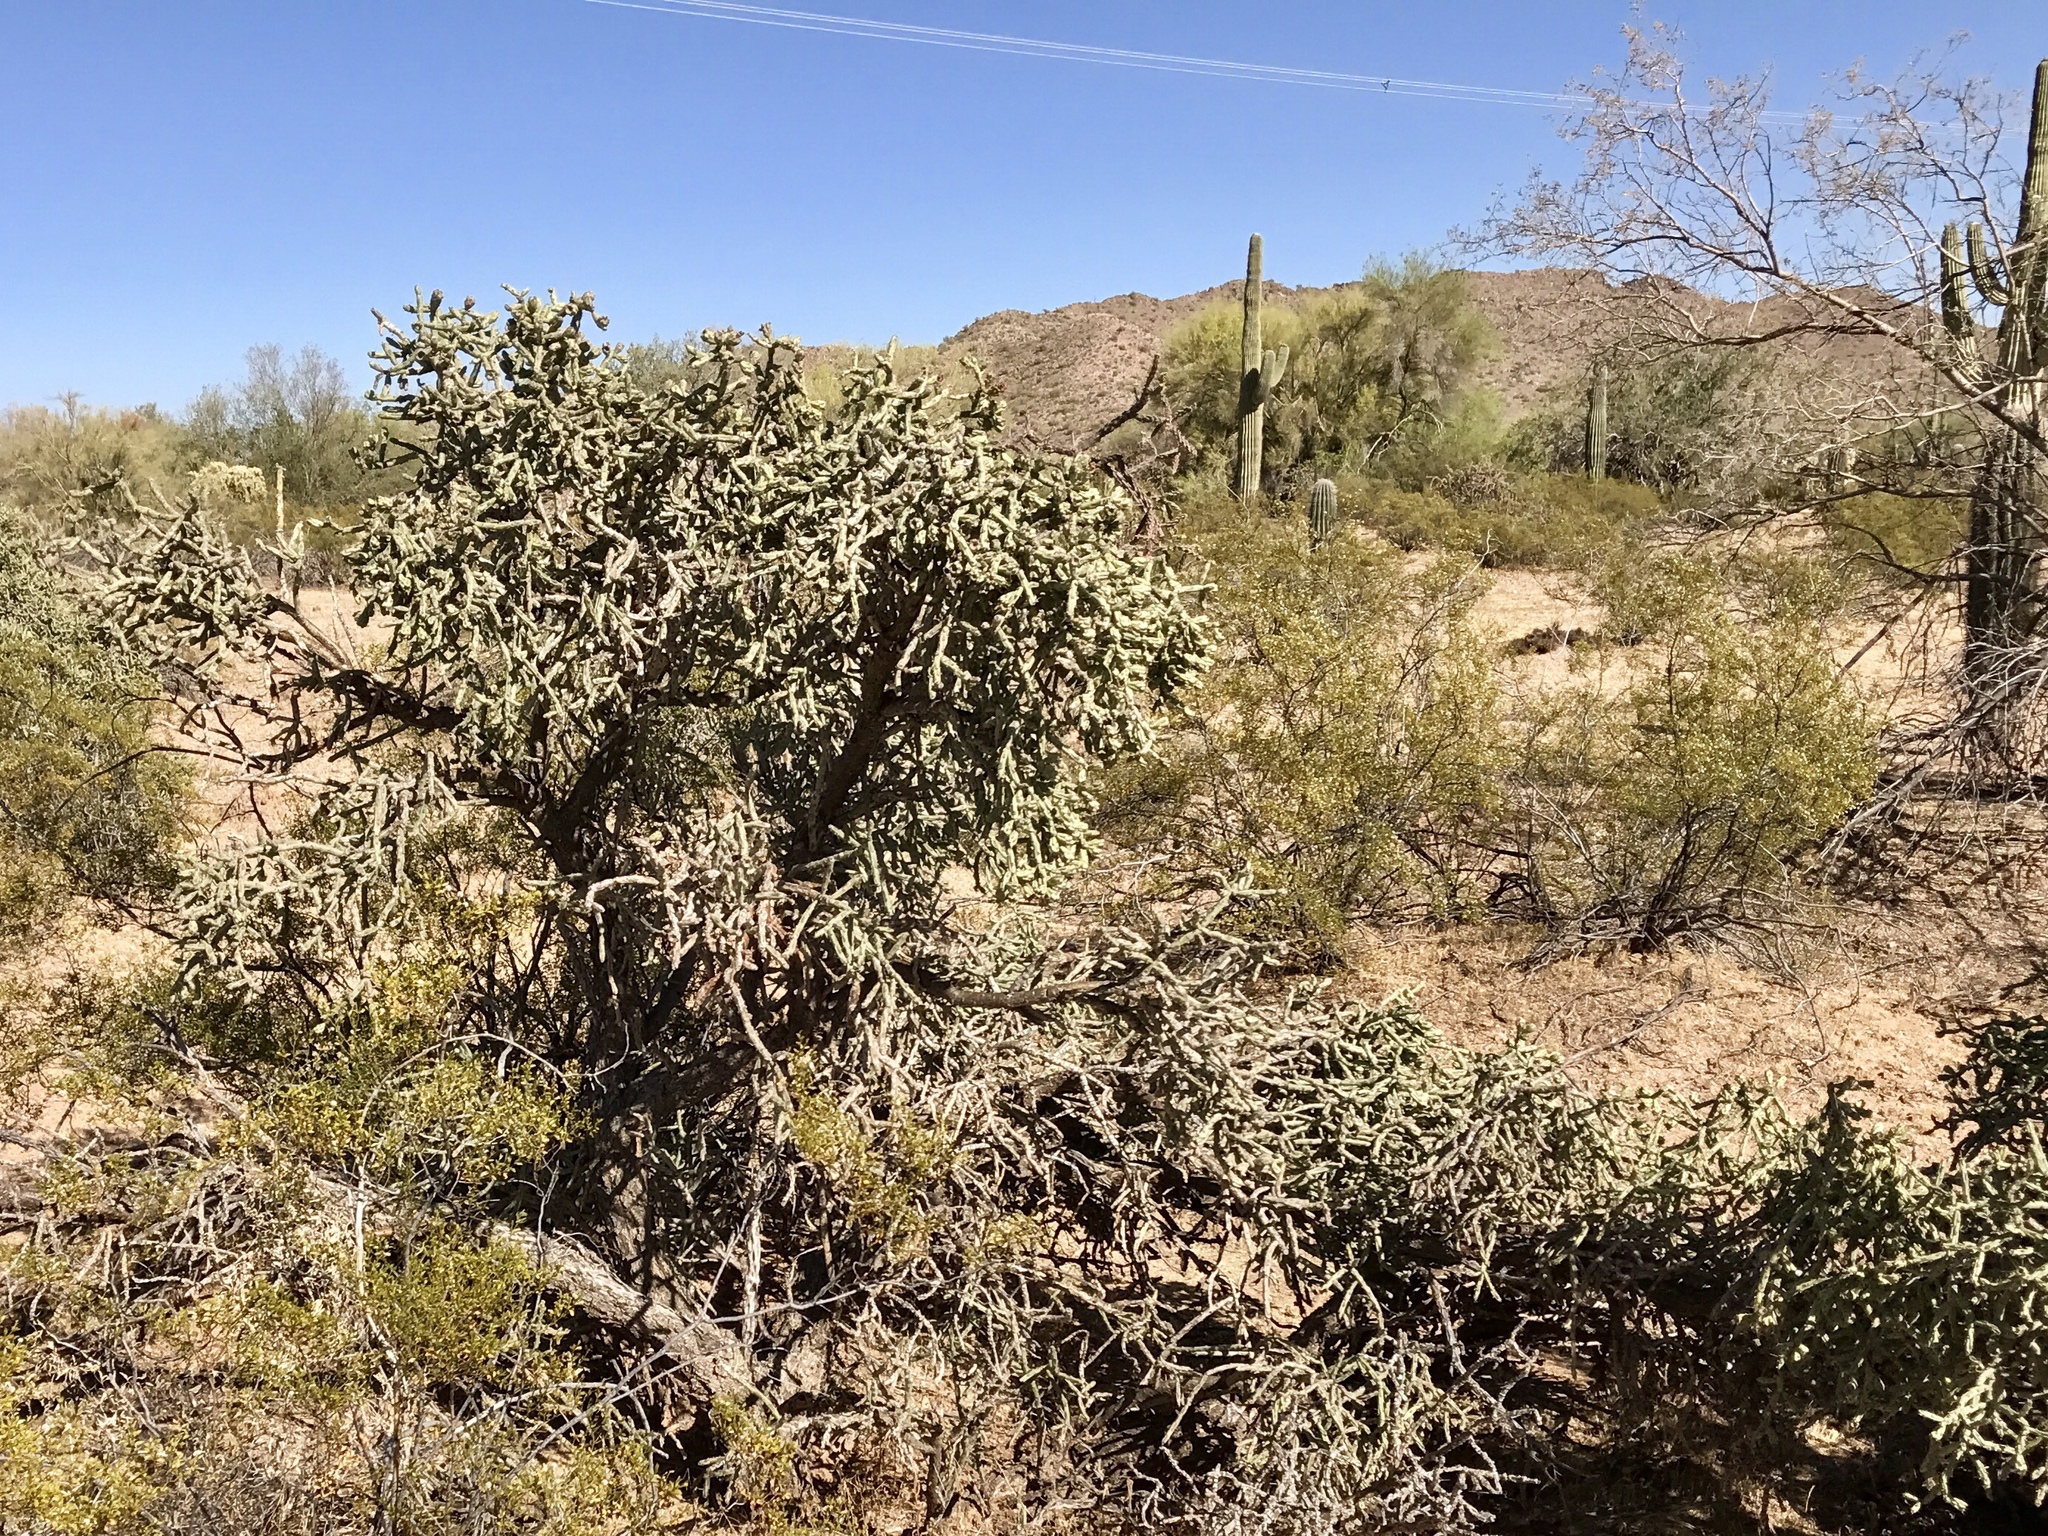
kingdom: Plantae
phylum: Tracheophyta
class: Magnoliopsida
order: Caryophyllales
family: Cactaceae
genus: Cylindropuntia
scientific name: Cylindropuntia arbuscula
